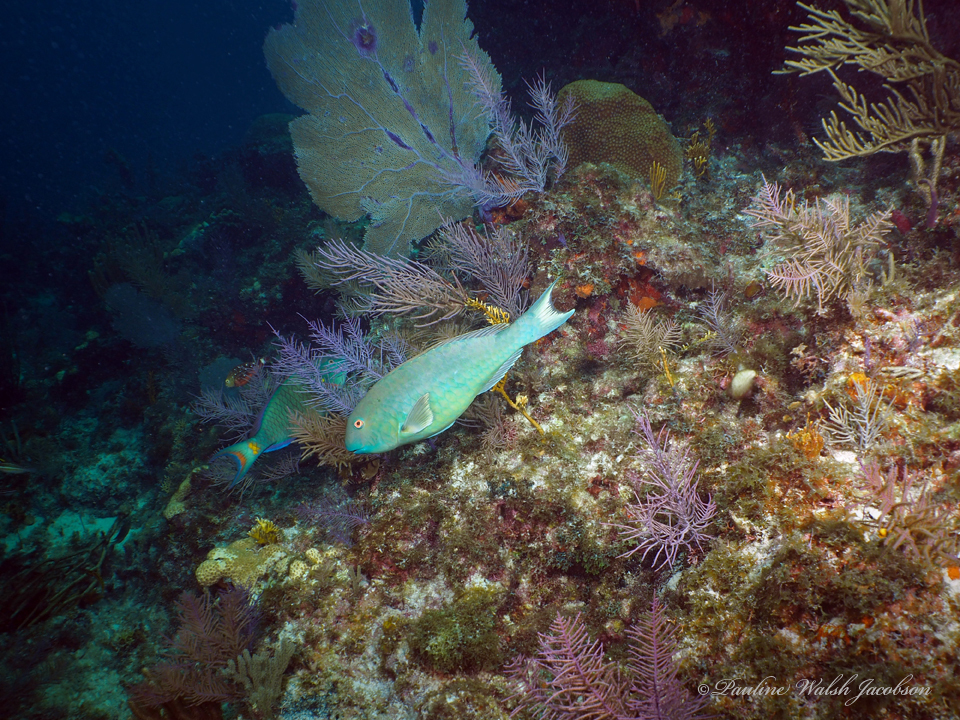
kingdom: Animalia
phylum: Chordata
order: Perciformes
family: Scaridae
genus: Sparisoma
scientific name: Sparisoma rubripinne
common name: Redfin parrotfish
